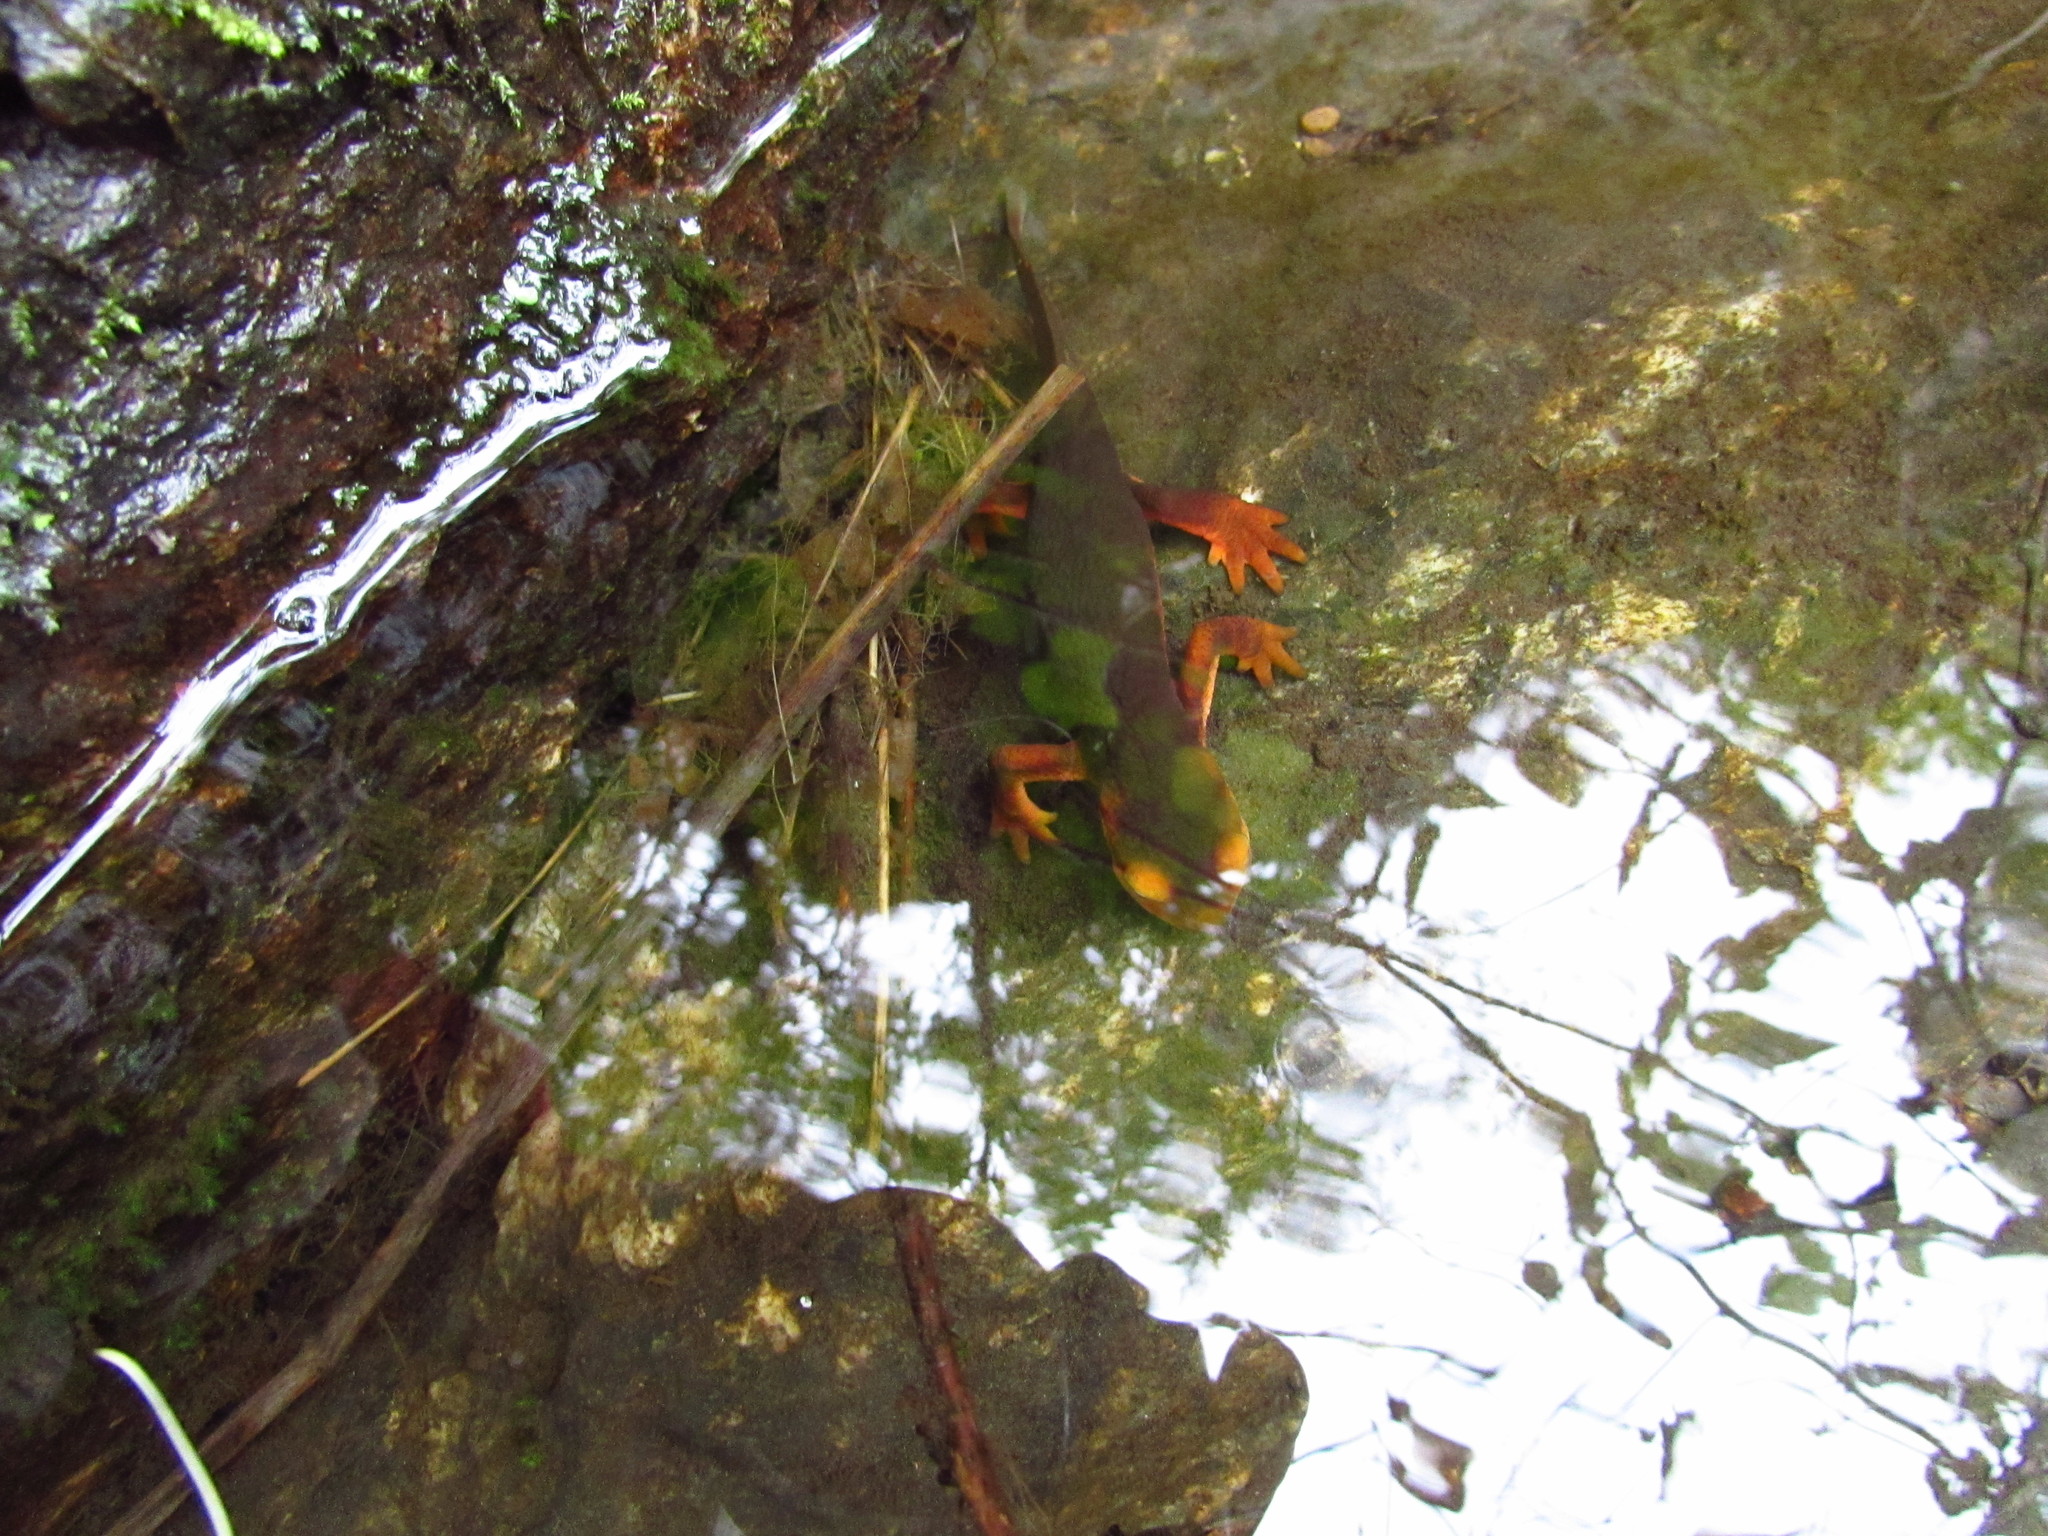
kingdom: Animalia
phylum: Chordata
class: Amphibia
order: Caudata
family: Salamandridae
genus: Taricha
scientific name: Taricha sierrae
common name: Sierra newt
